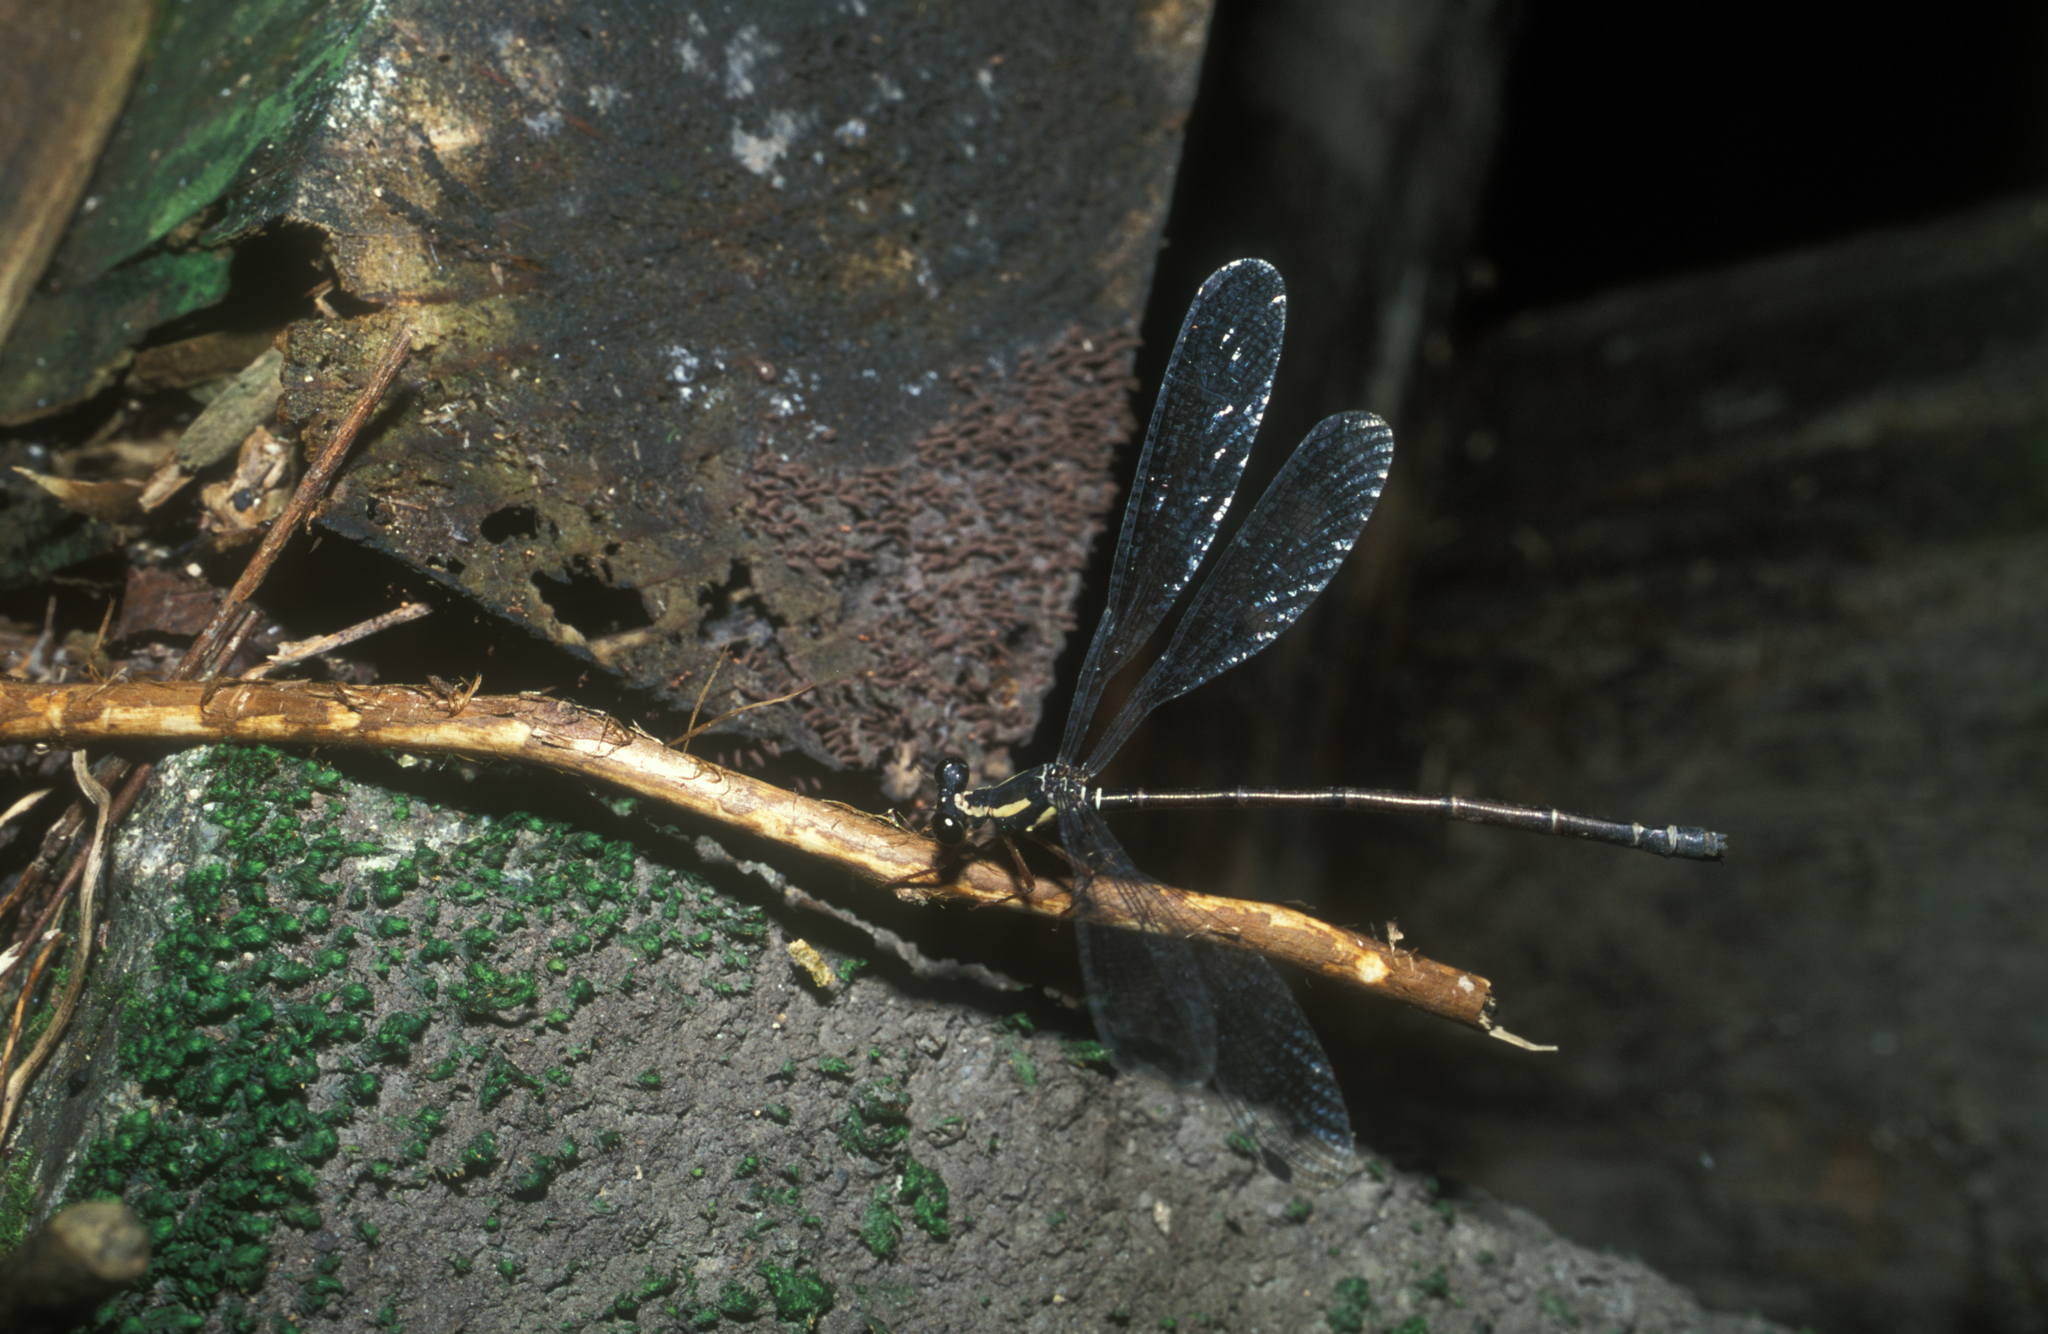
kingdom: Animalia
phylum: Arthropoda
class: Insecta
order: Odonata
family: Megapodagrionidae
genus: Rhipidolestes
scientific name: Rhipidolestes hiraoi
